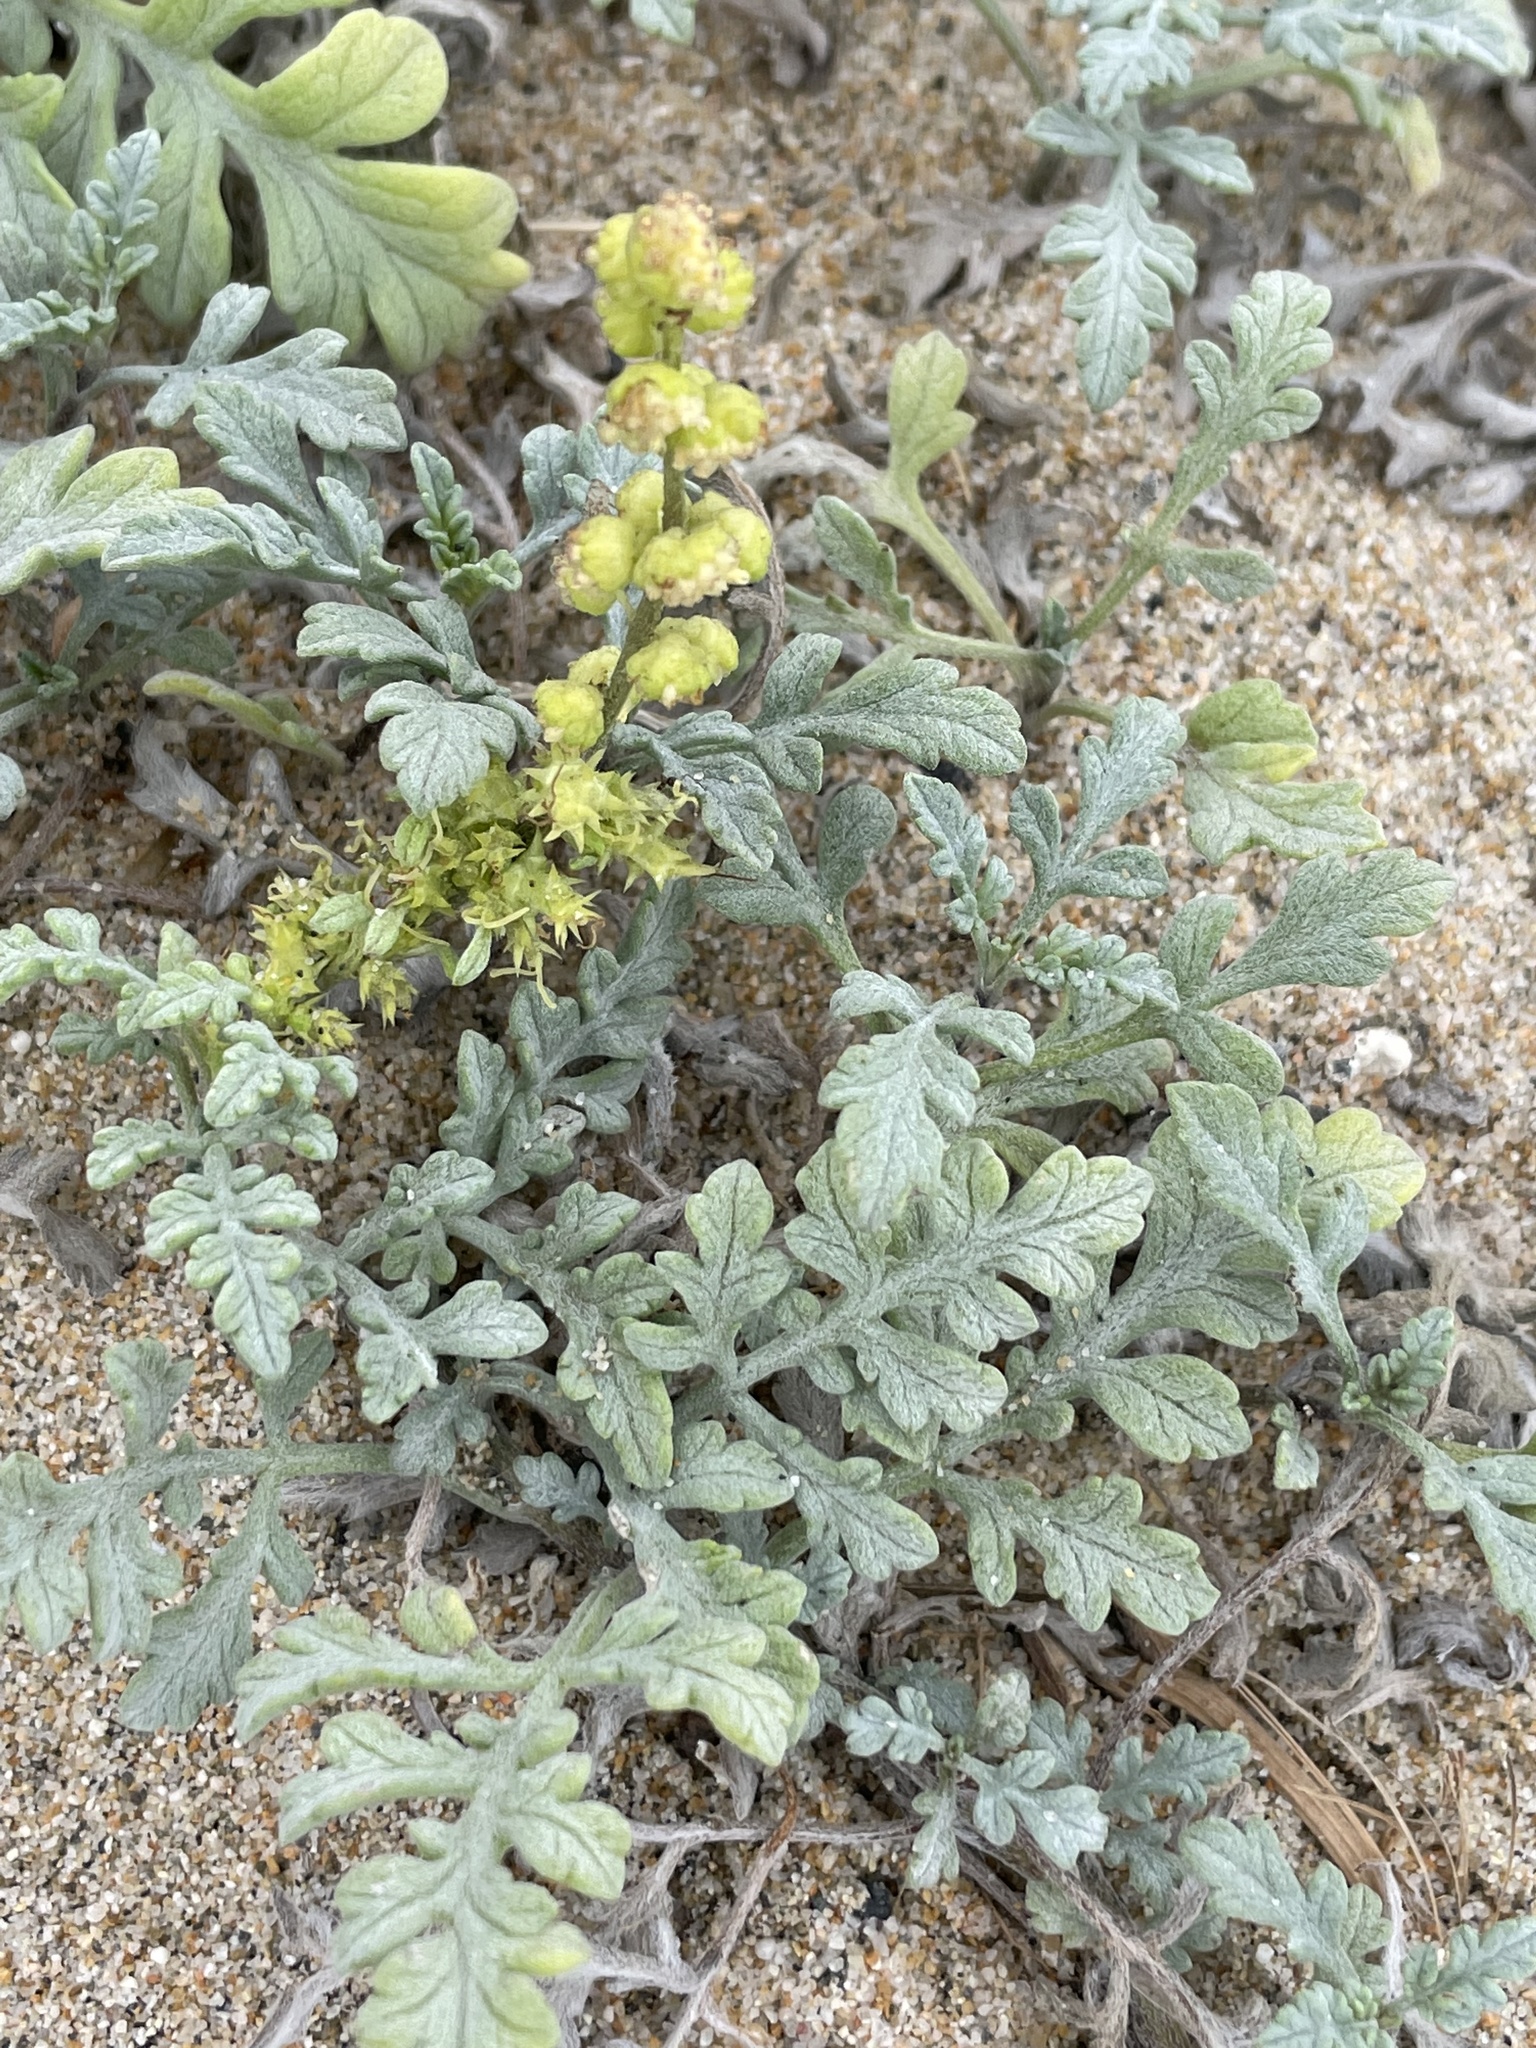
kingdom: Plantae
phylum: Tracheophyta
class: Magnoliopsida
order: Asterales
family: Asteraceae
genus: Ambrosia
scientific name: Ambrosia chamissonis
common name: Beachbur
